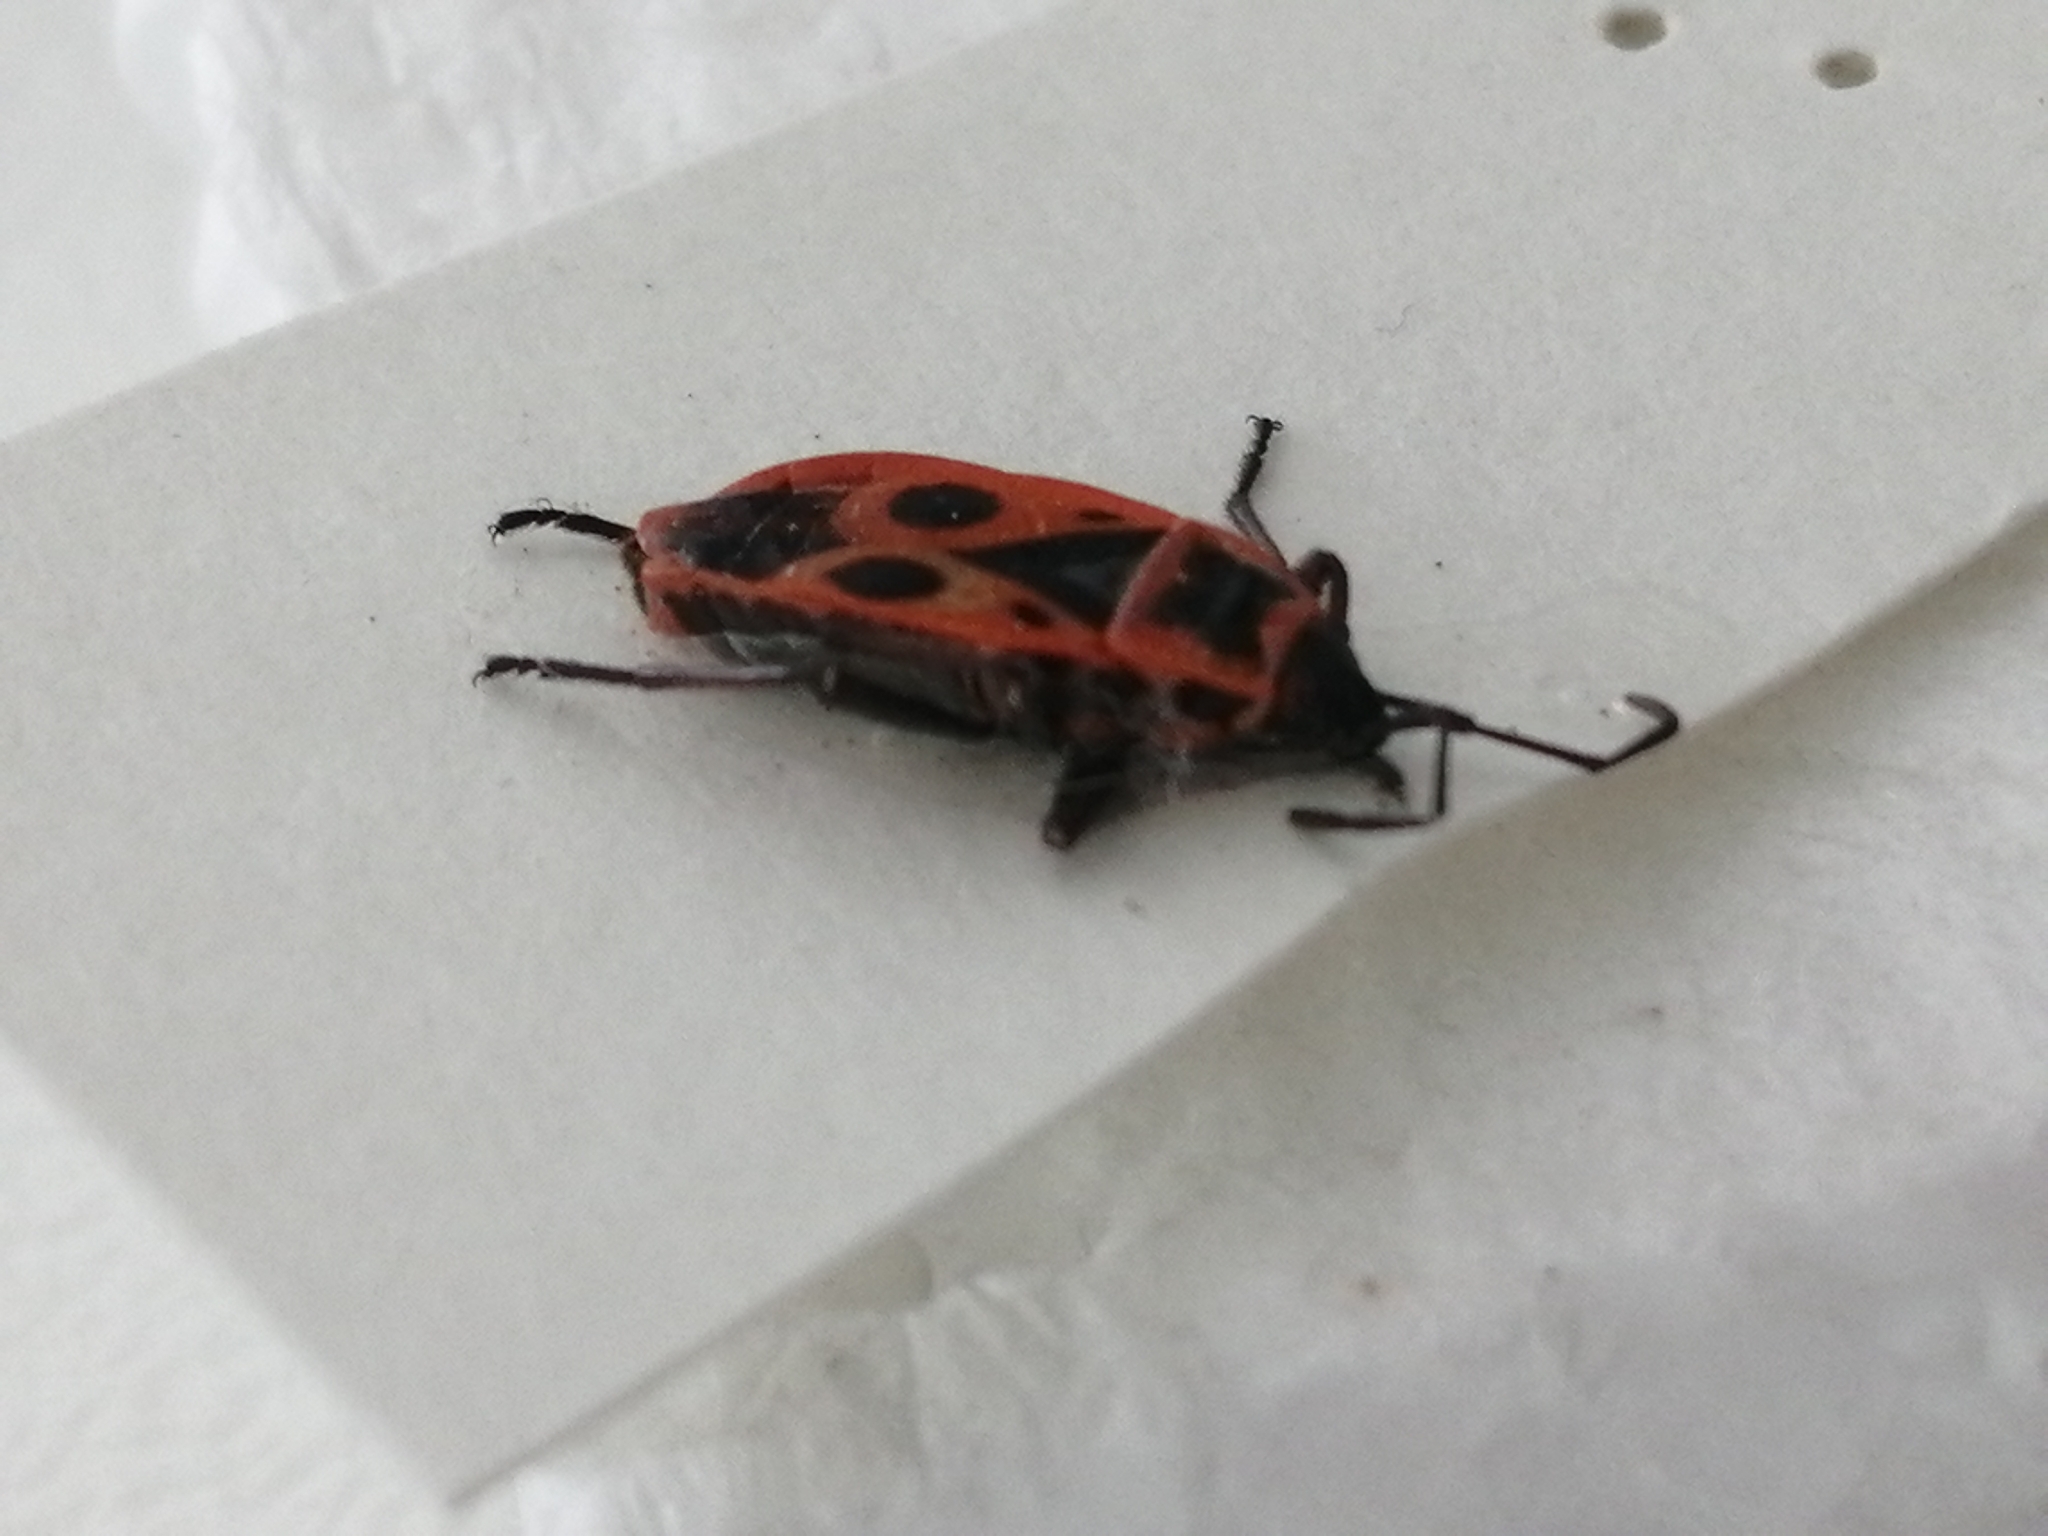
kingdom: Animalia
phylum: Arthropoda
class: Insecta
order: Hemiptera
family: Pyrrhocoridae
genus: Pyrrhocoris
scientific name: Pyrrhocoris apterus
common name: Firebug
